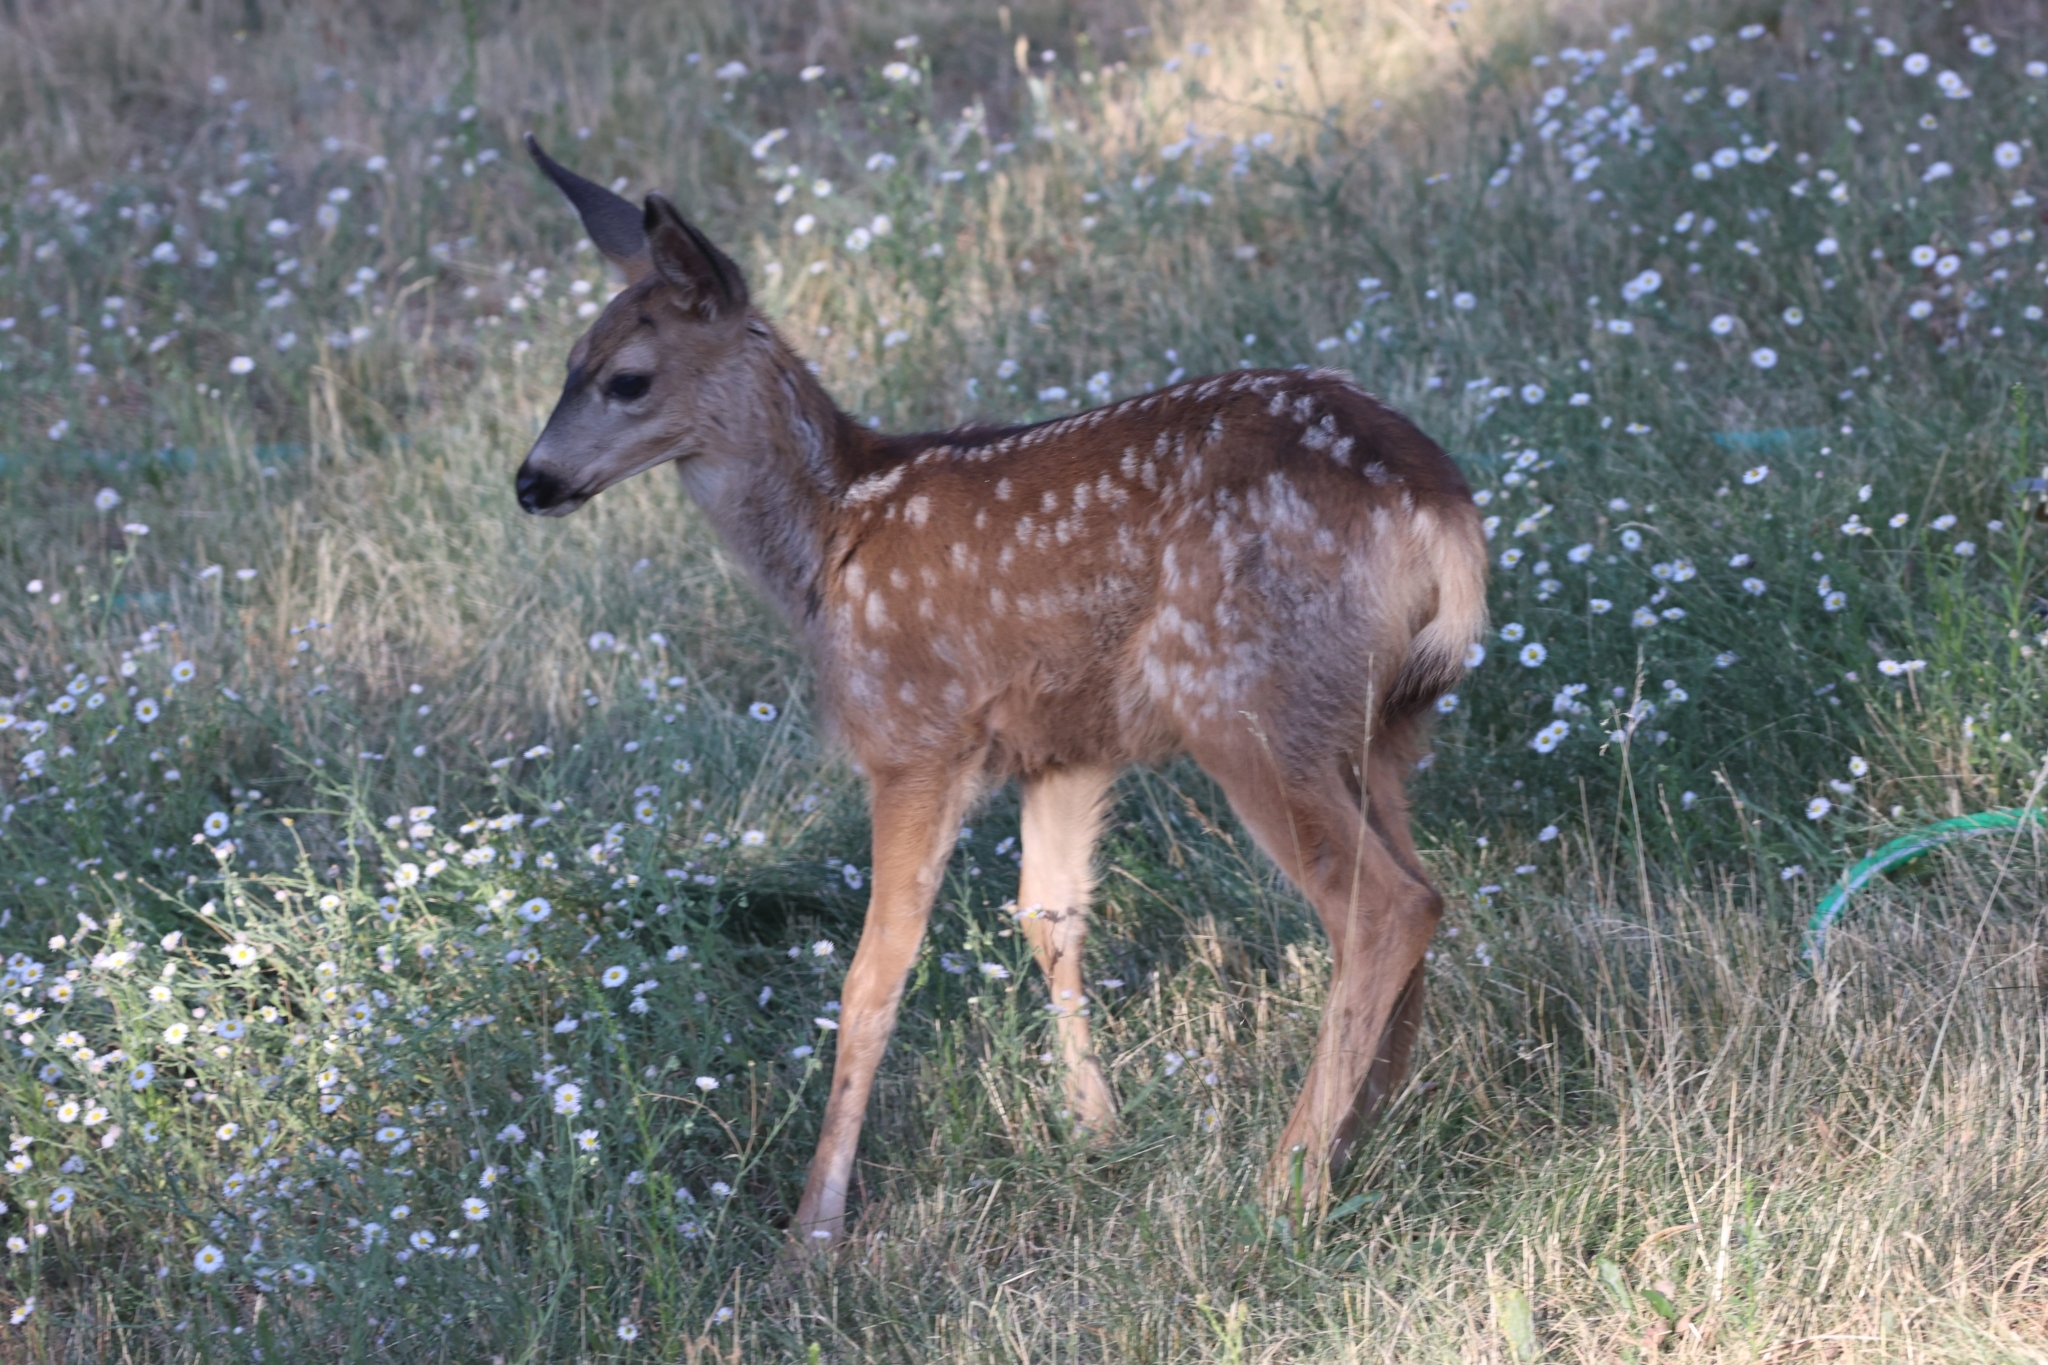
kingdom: Animalia
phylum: Chordata
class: Mammalia
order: Artiodactyla
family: Cervidae
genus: Odocoileus
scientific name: Odocoileus hemionus
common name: Mule deer
